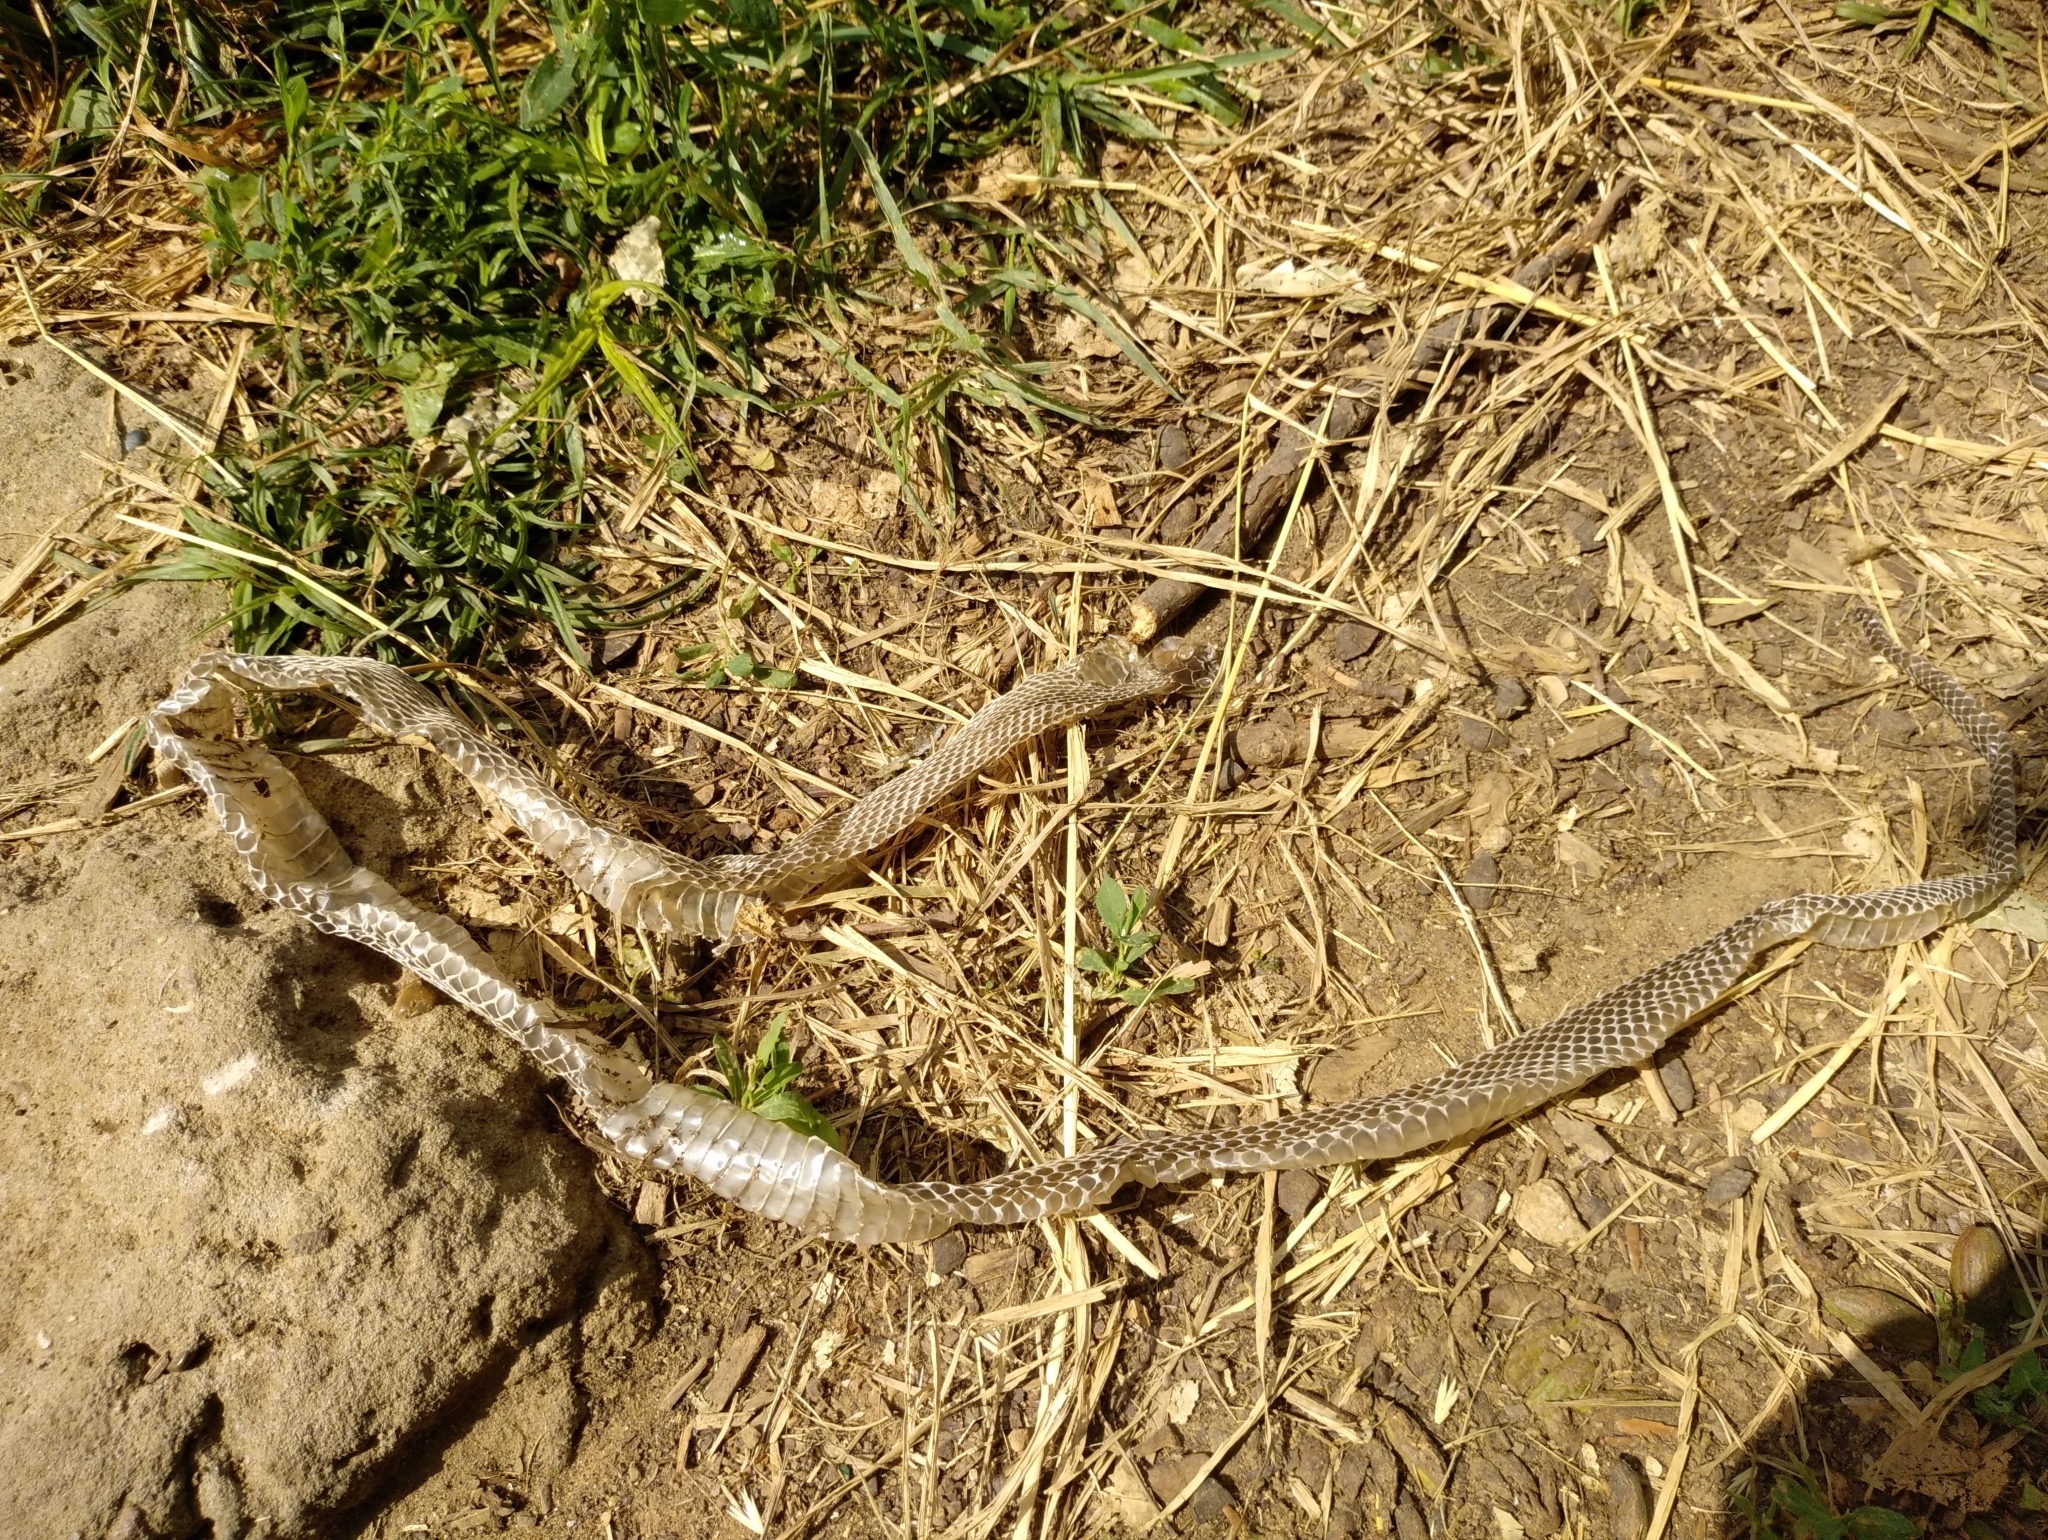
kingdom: Animalia
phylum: Chordata
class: Squamata
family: Colubridae
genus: Natrix
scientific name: Natrix natrix
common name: Grass snake
